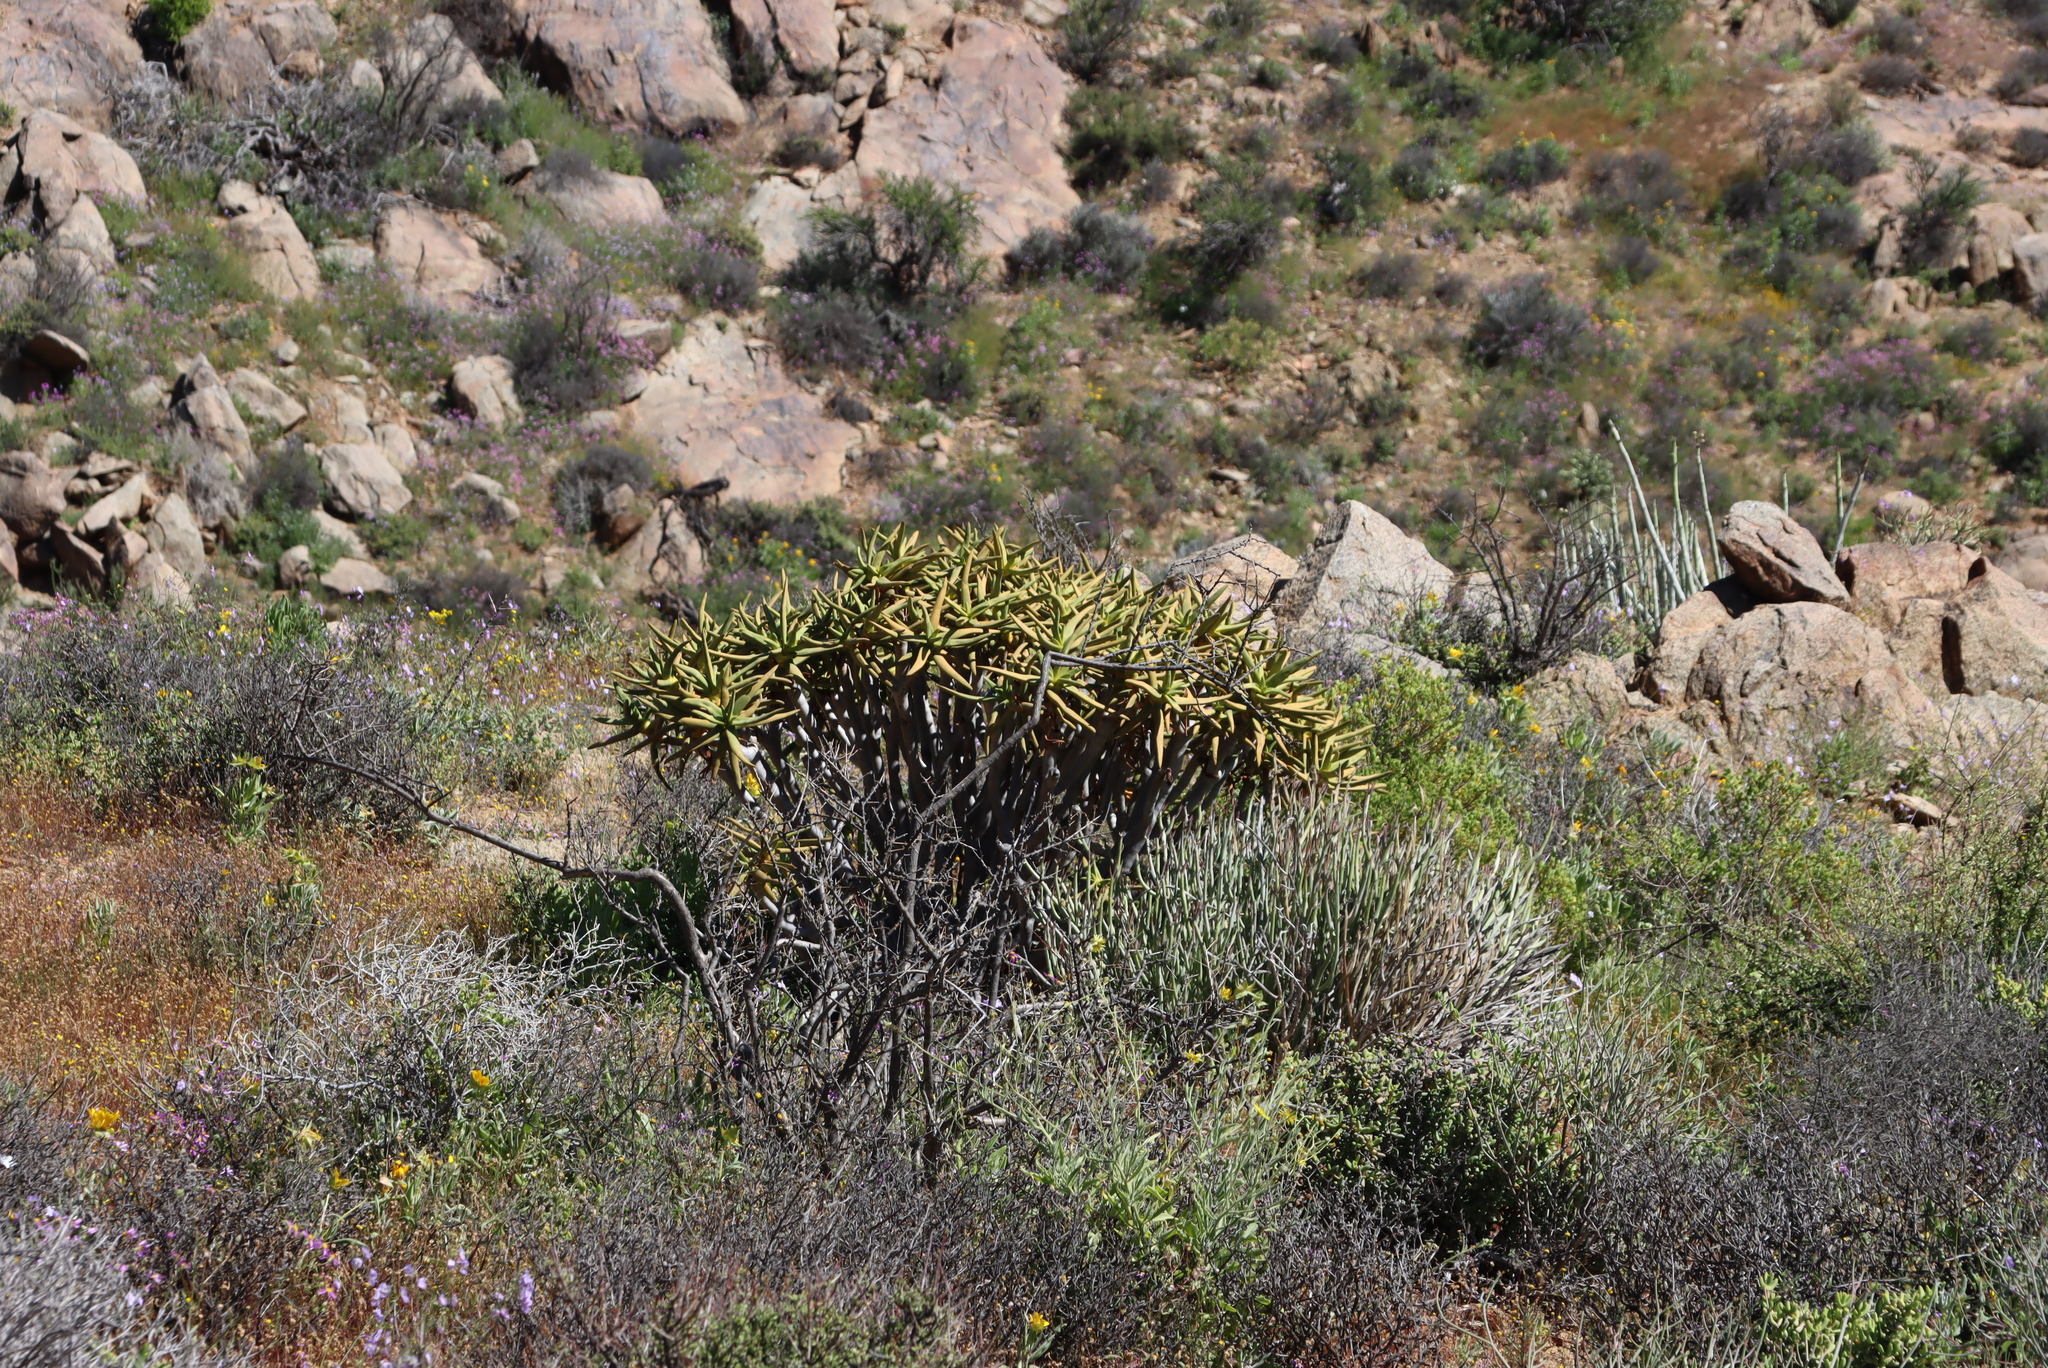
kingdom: Plantae
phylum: Tracheophyta
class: Liliopsida
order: Asparagales
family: Asphodelaceae
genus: Aloidendron
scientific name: Aloidendron ramosissimum
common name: Bush quiver tree
